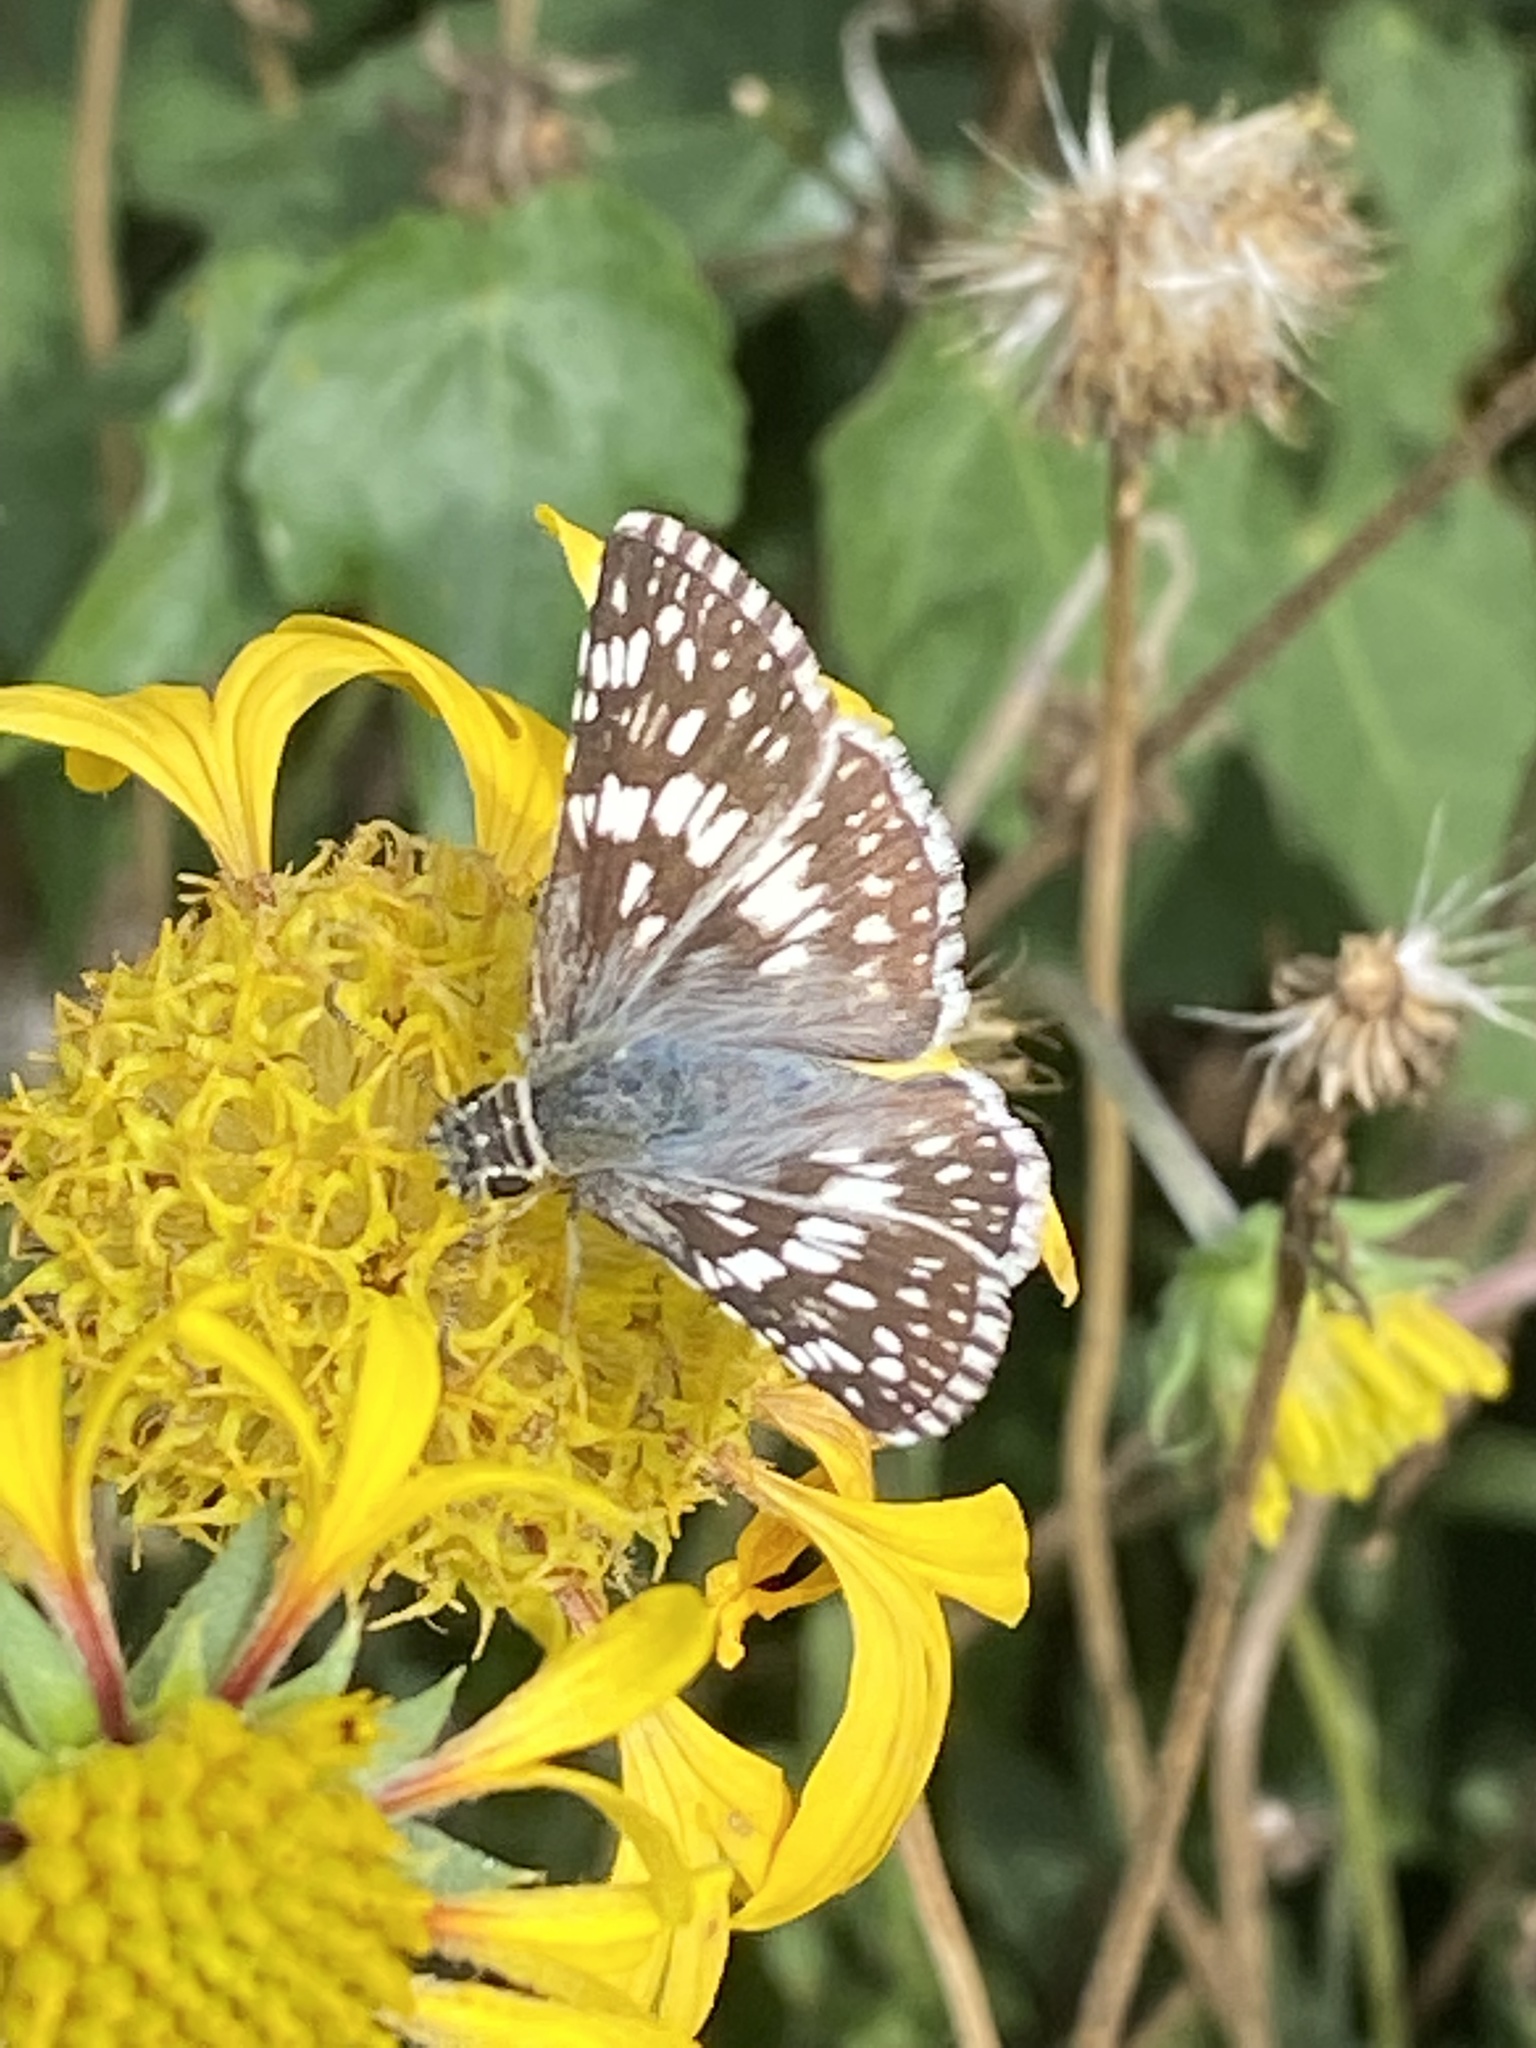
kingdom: Animalia
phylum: Arthropoda
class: Insecta
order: Lepidoptera
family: Hesperiidae
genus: Burnsius
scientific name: Burnsius communis
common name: Common checkered-skipper
